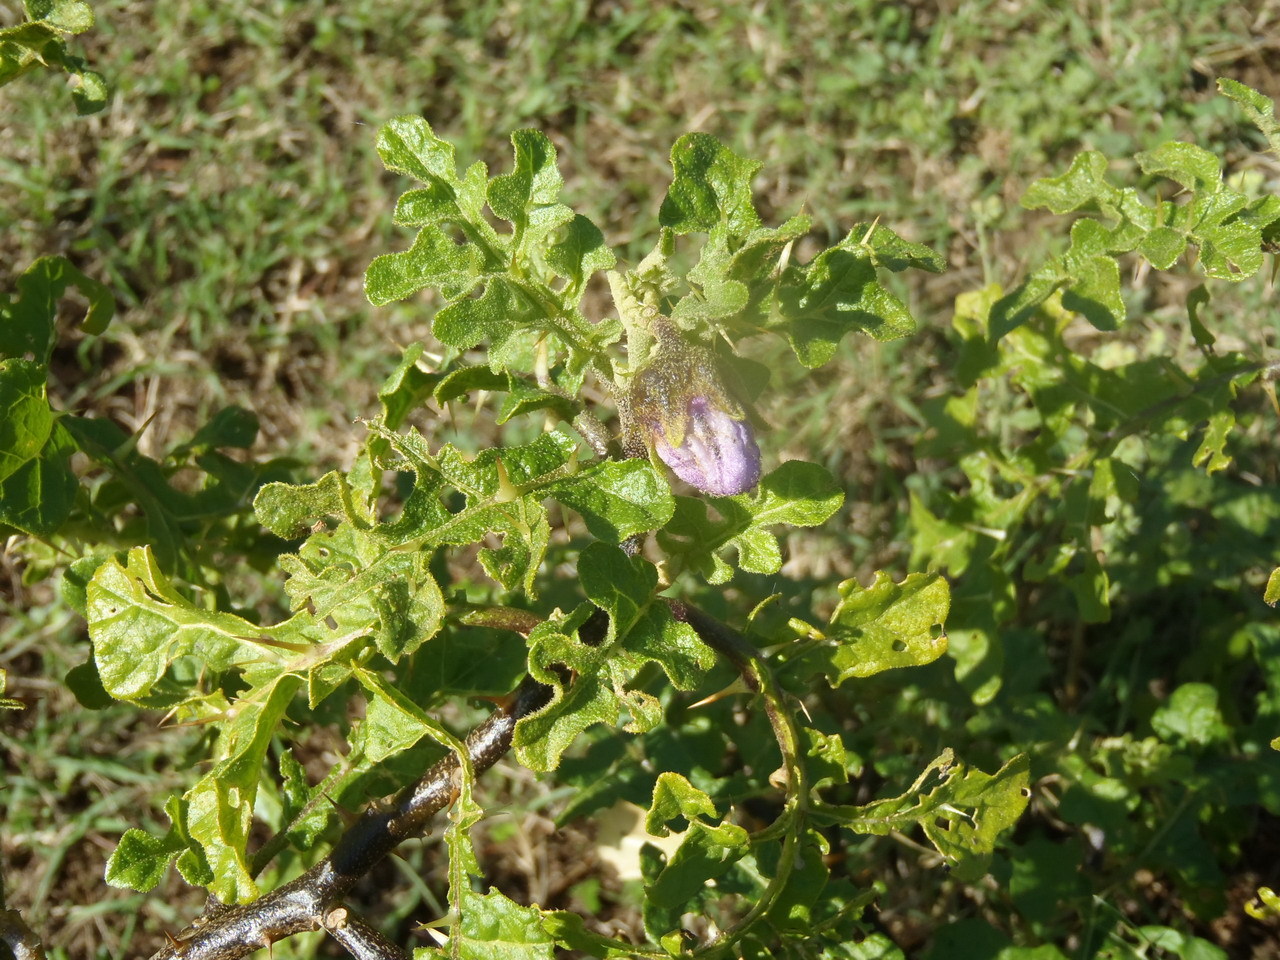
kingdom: Plantae
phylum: Tracheophyta
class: Magnoliopsida
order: Solanales
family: Solanaceae
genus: Solanum
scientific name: Solanum linnaeanum
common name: Nightshade
